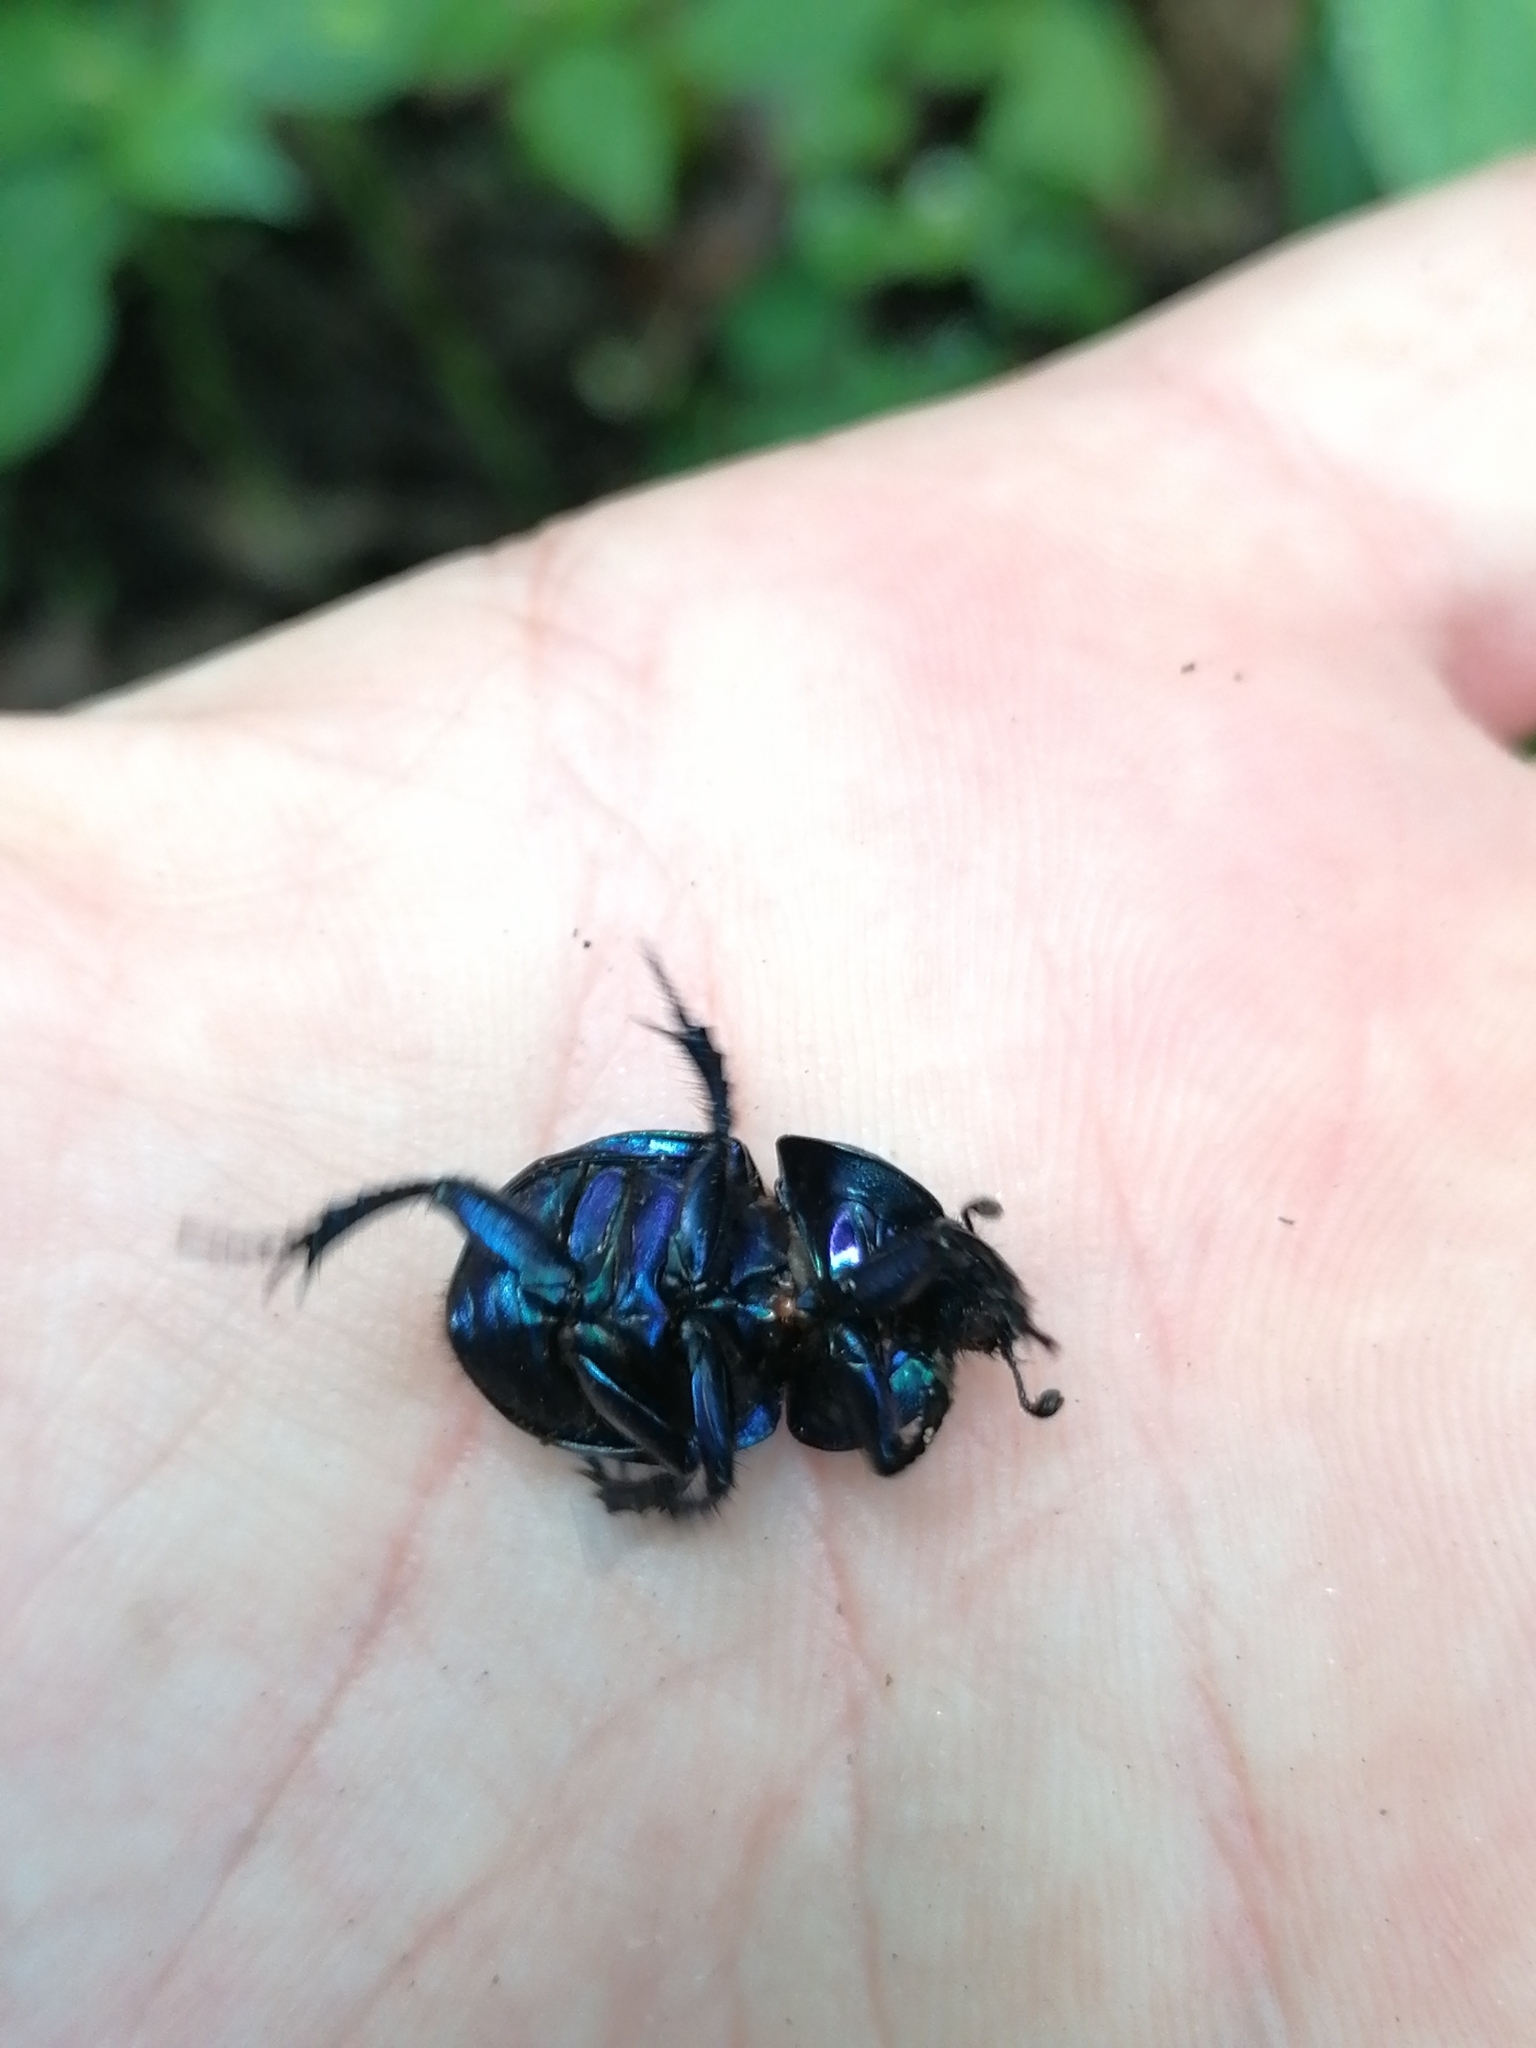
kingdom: Animalia
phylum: Arthropoda
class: Insecta
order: Coleoptera
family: Geotrupidae
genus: Trypocopris
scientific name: Trypocopris vernalis
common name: Spring dumbledor
